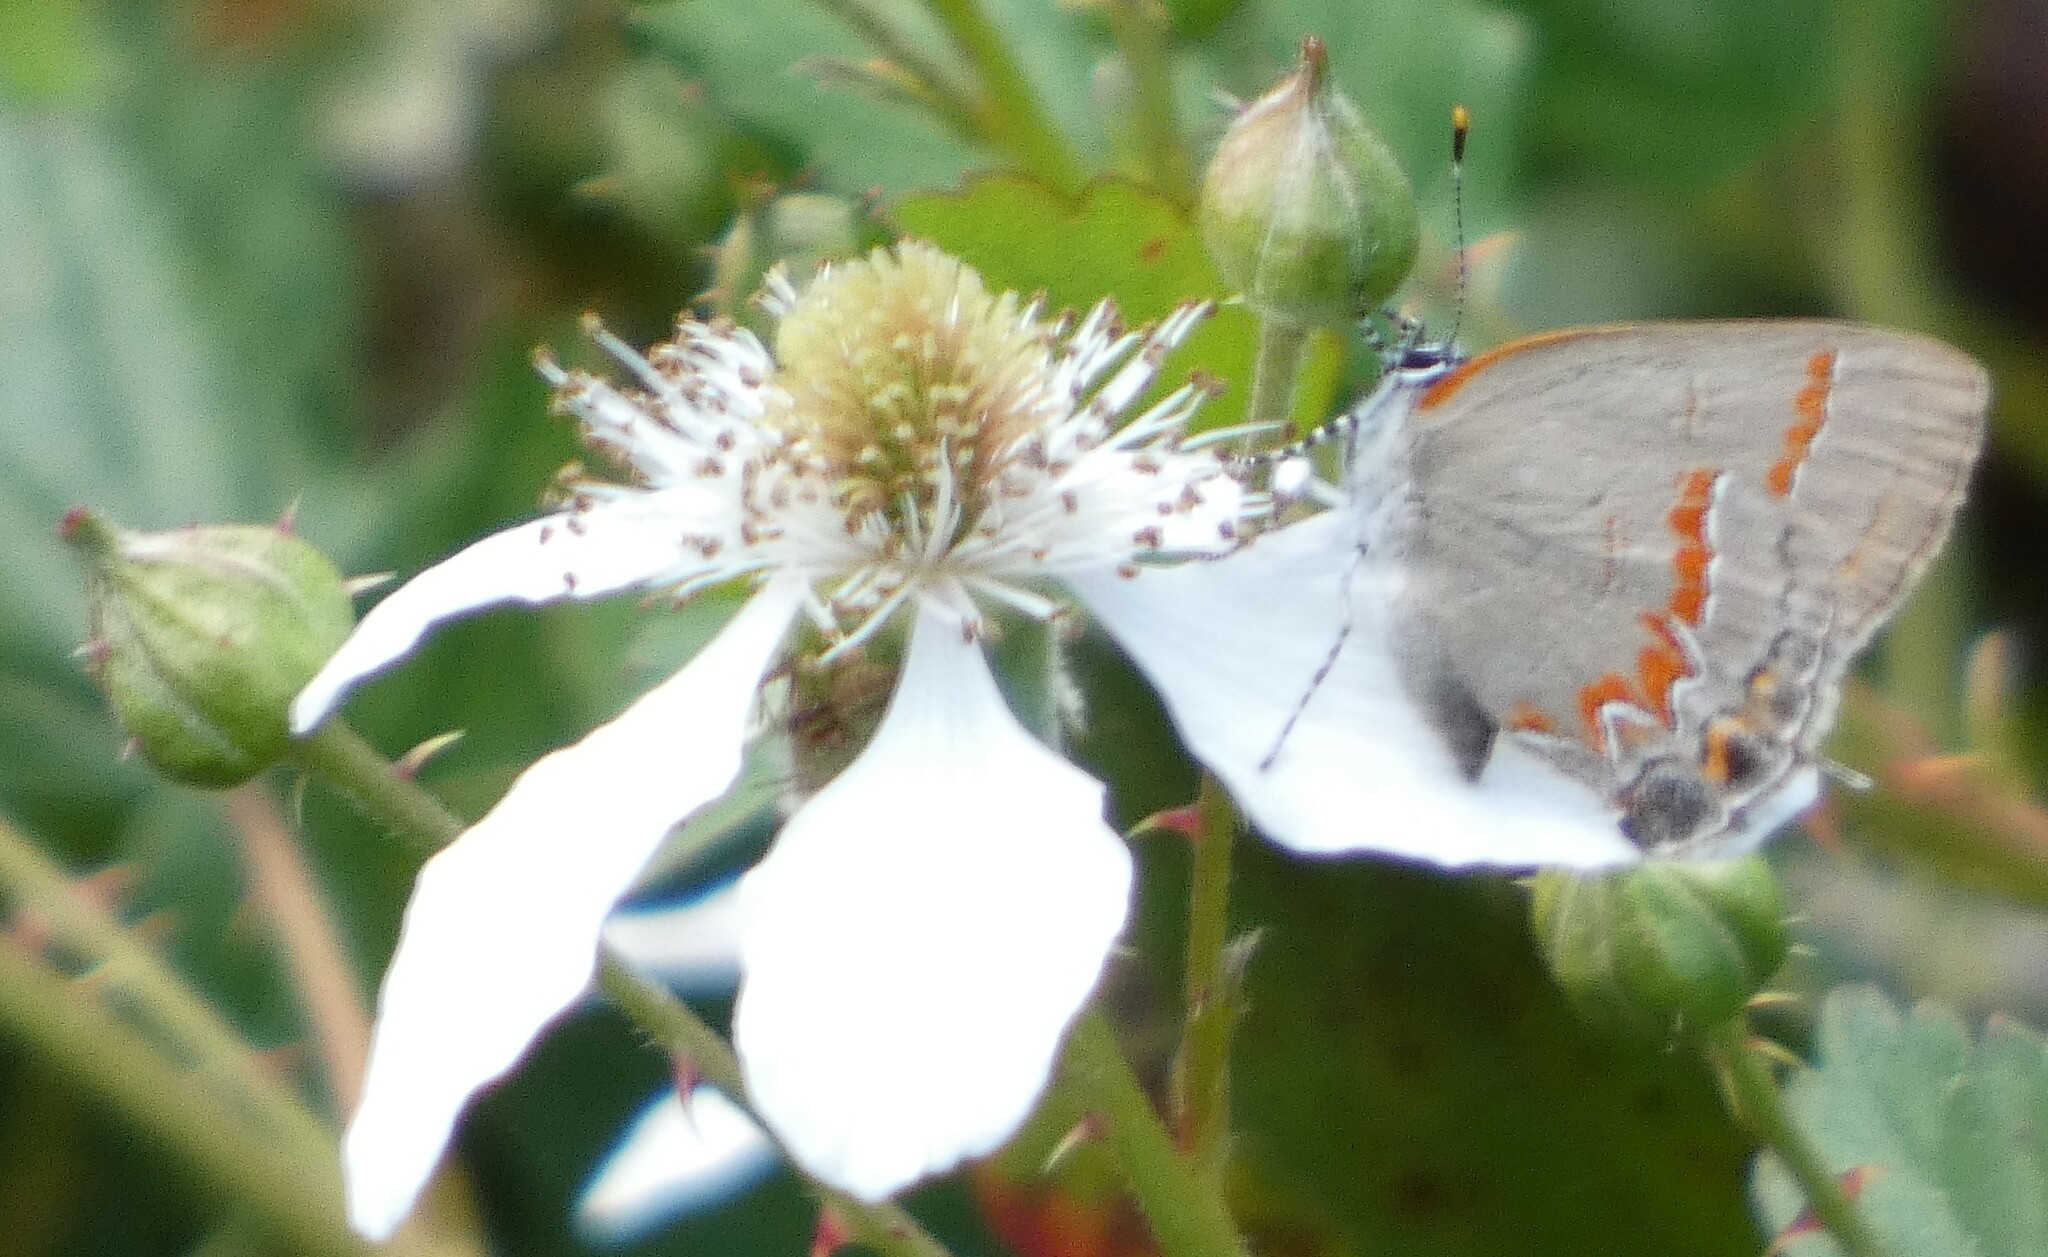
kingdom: Animalia
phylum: Arthropoda
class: Insecta
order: Lepidoptera
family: Lycaenidae
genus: Calycopis
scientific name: Calycopis cecrops
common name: Red-banded hairstreak
